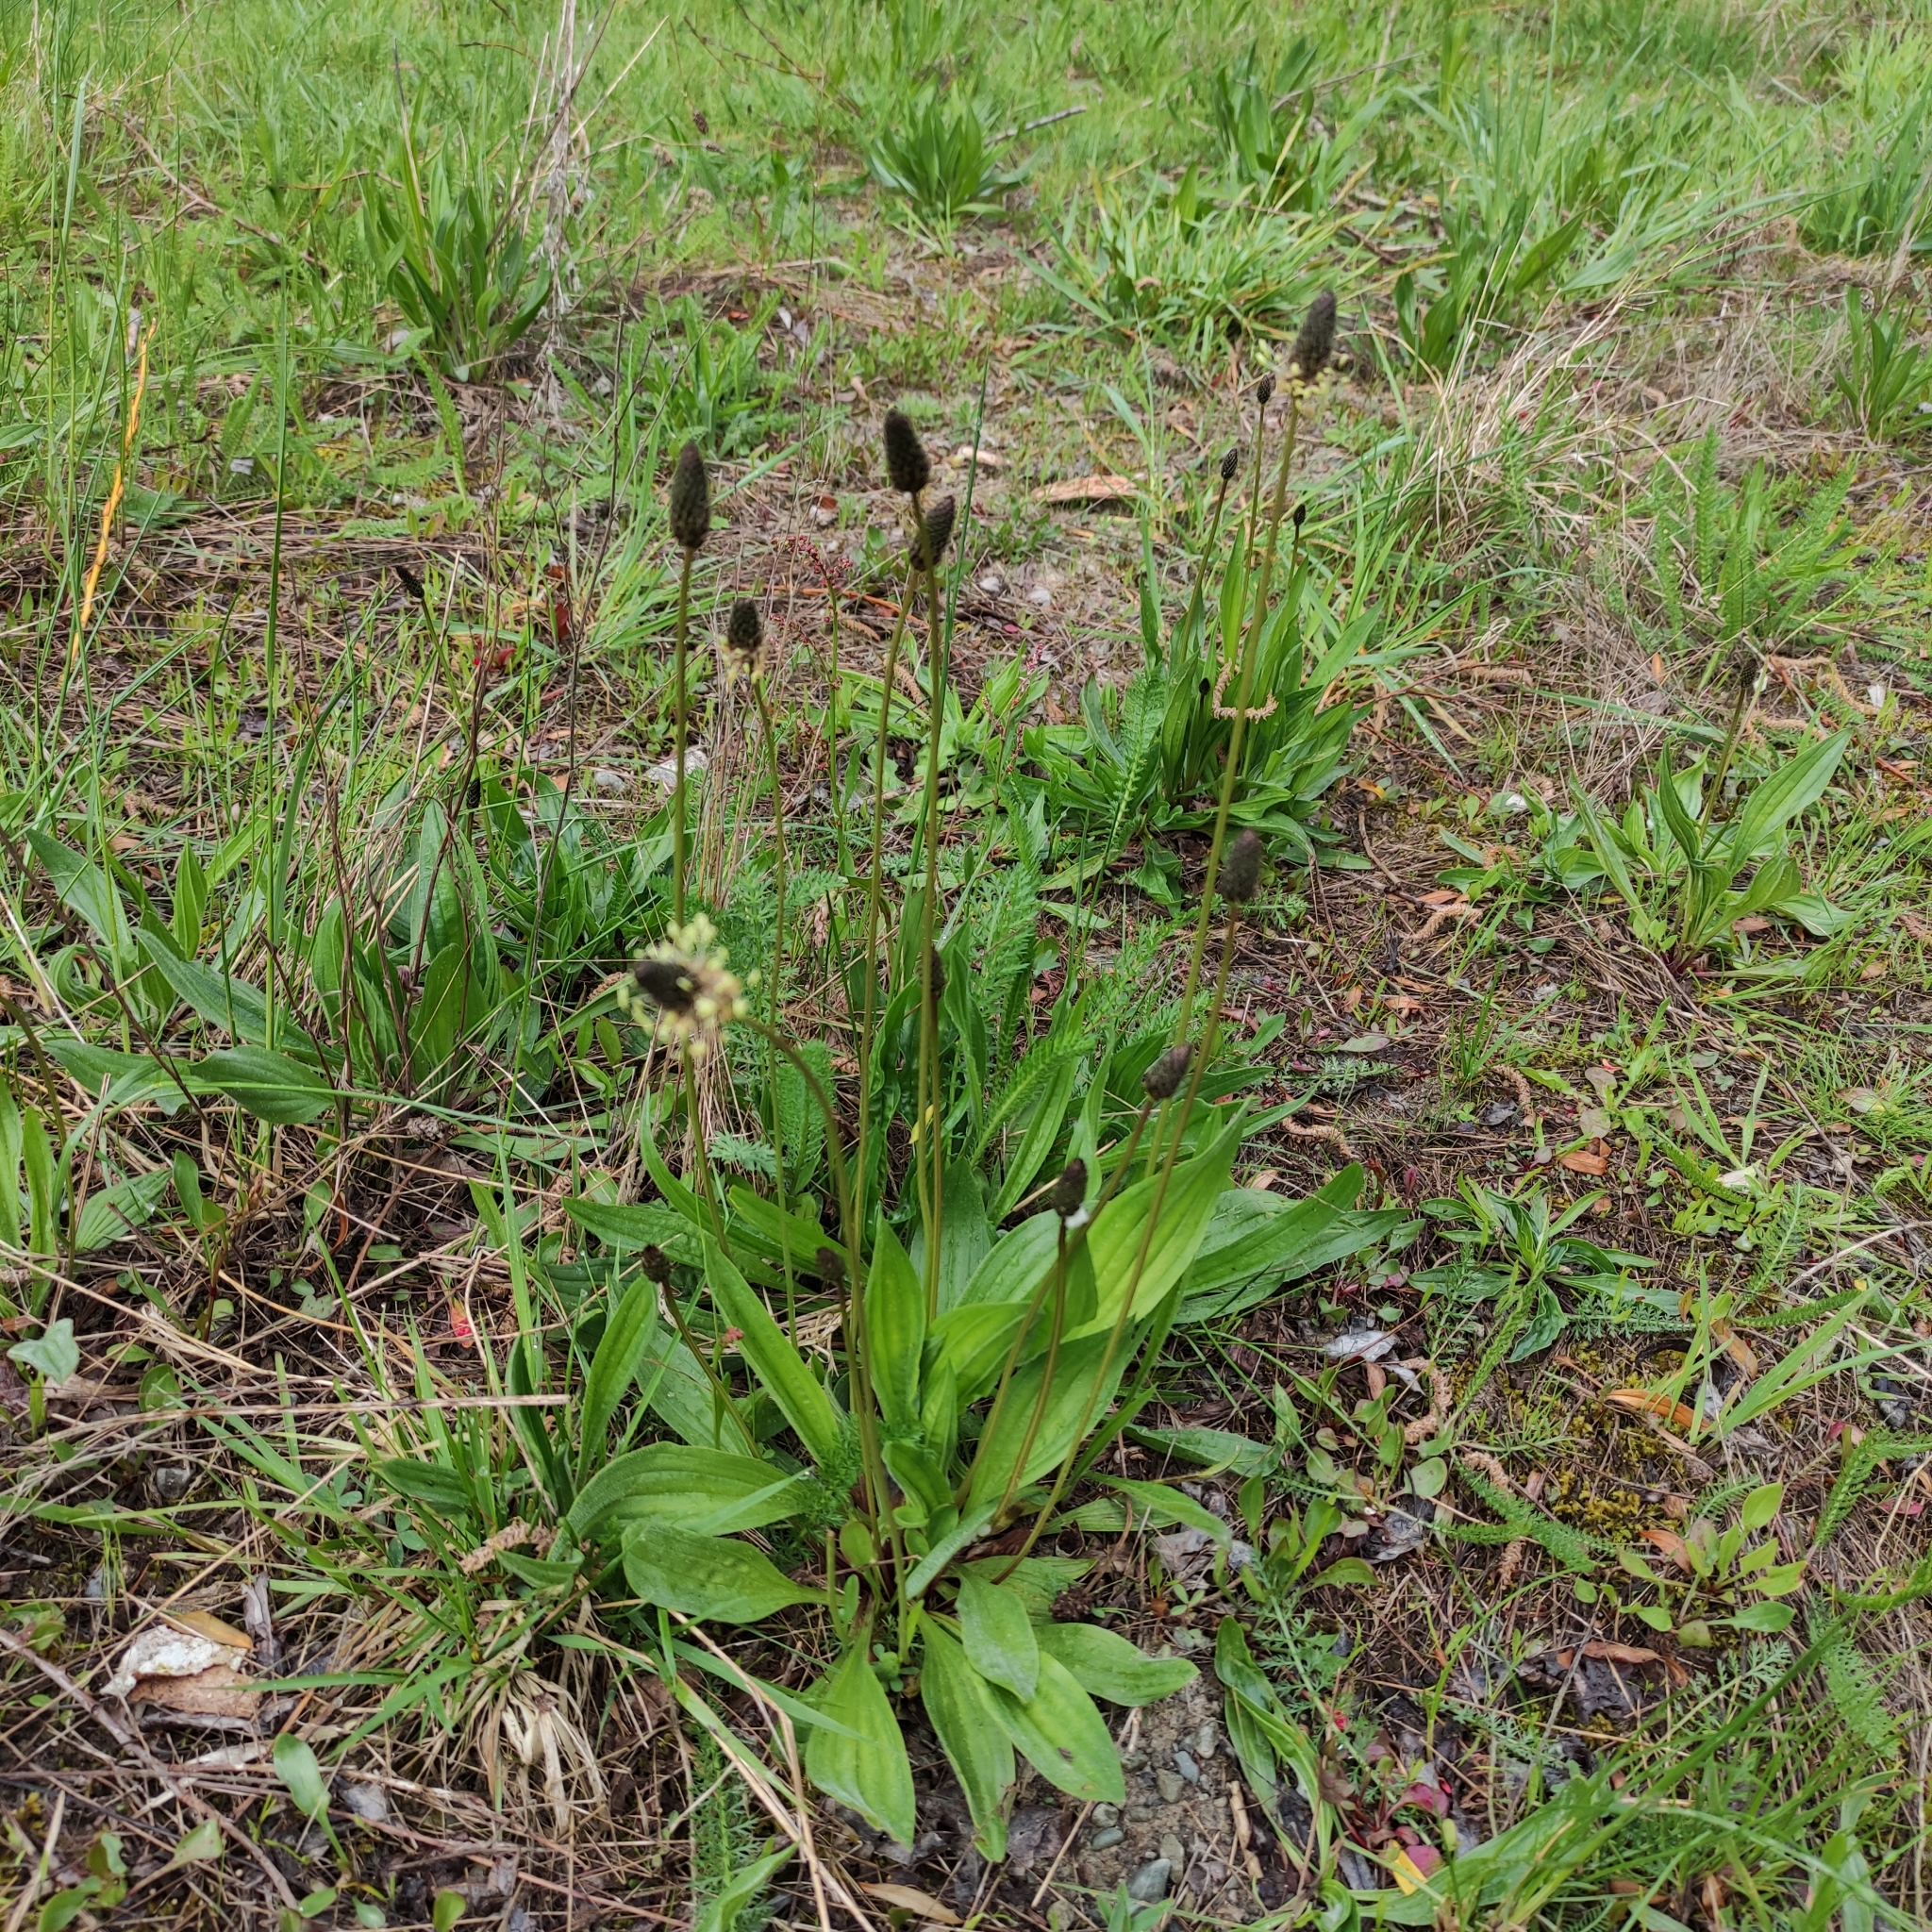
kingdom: Plantae
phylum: Tracheophyta
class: Magnoliopsida
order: Lamiales
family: Plantaginaceae
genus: Plantago
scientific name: Plantago lanceolata
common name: Ribwort plantain
